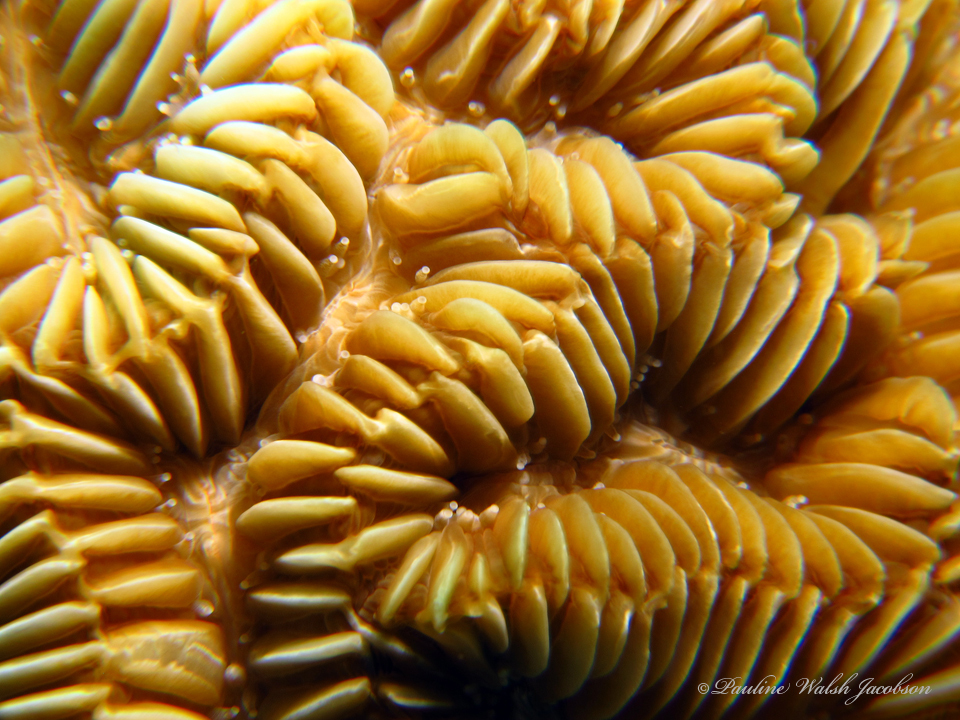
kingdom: Animalia
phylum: Cnidaria
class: Anthozoa
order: Scleractinia
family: Meandrinidae
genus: Meandrina
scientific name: Meandrina meandrites
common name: Maze coral
